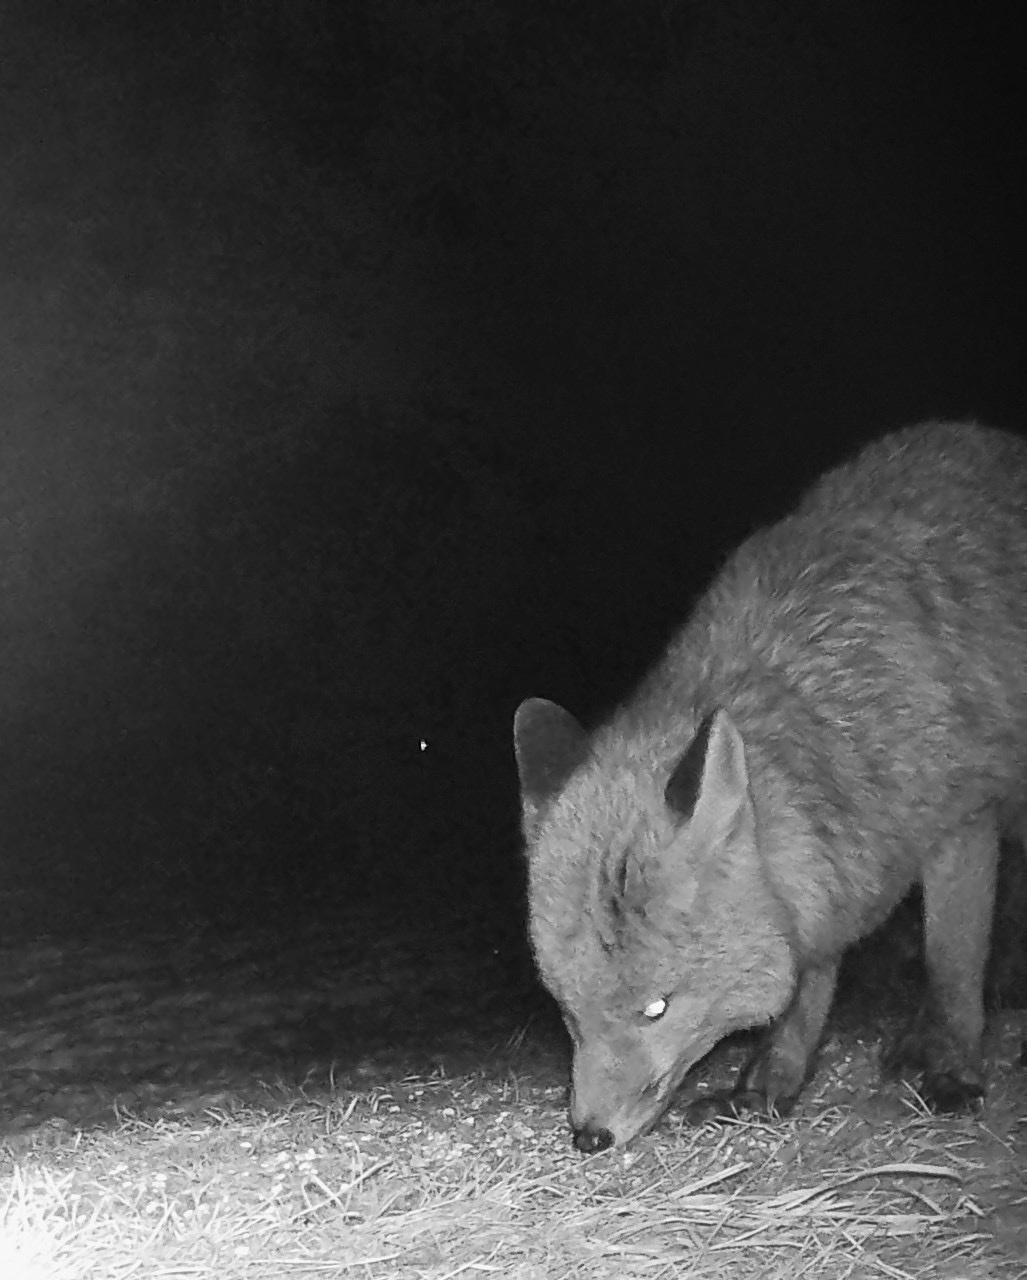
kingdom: Animalia
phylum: Chordata
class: Mammalia
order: Carnivora
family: Canidae
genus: Vulpes
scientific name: Vulpes vulpes
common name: Red fox
